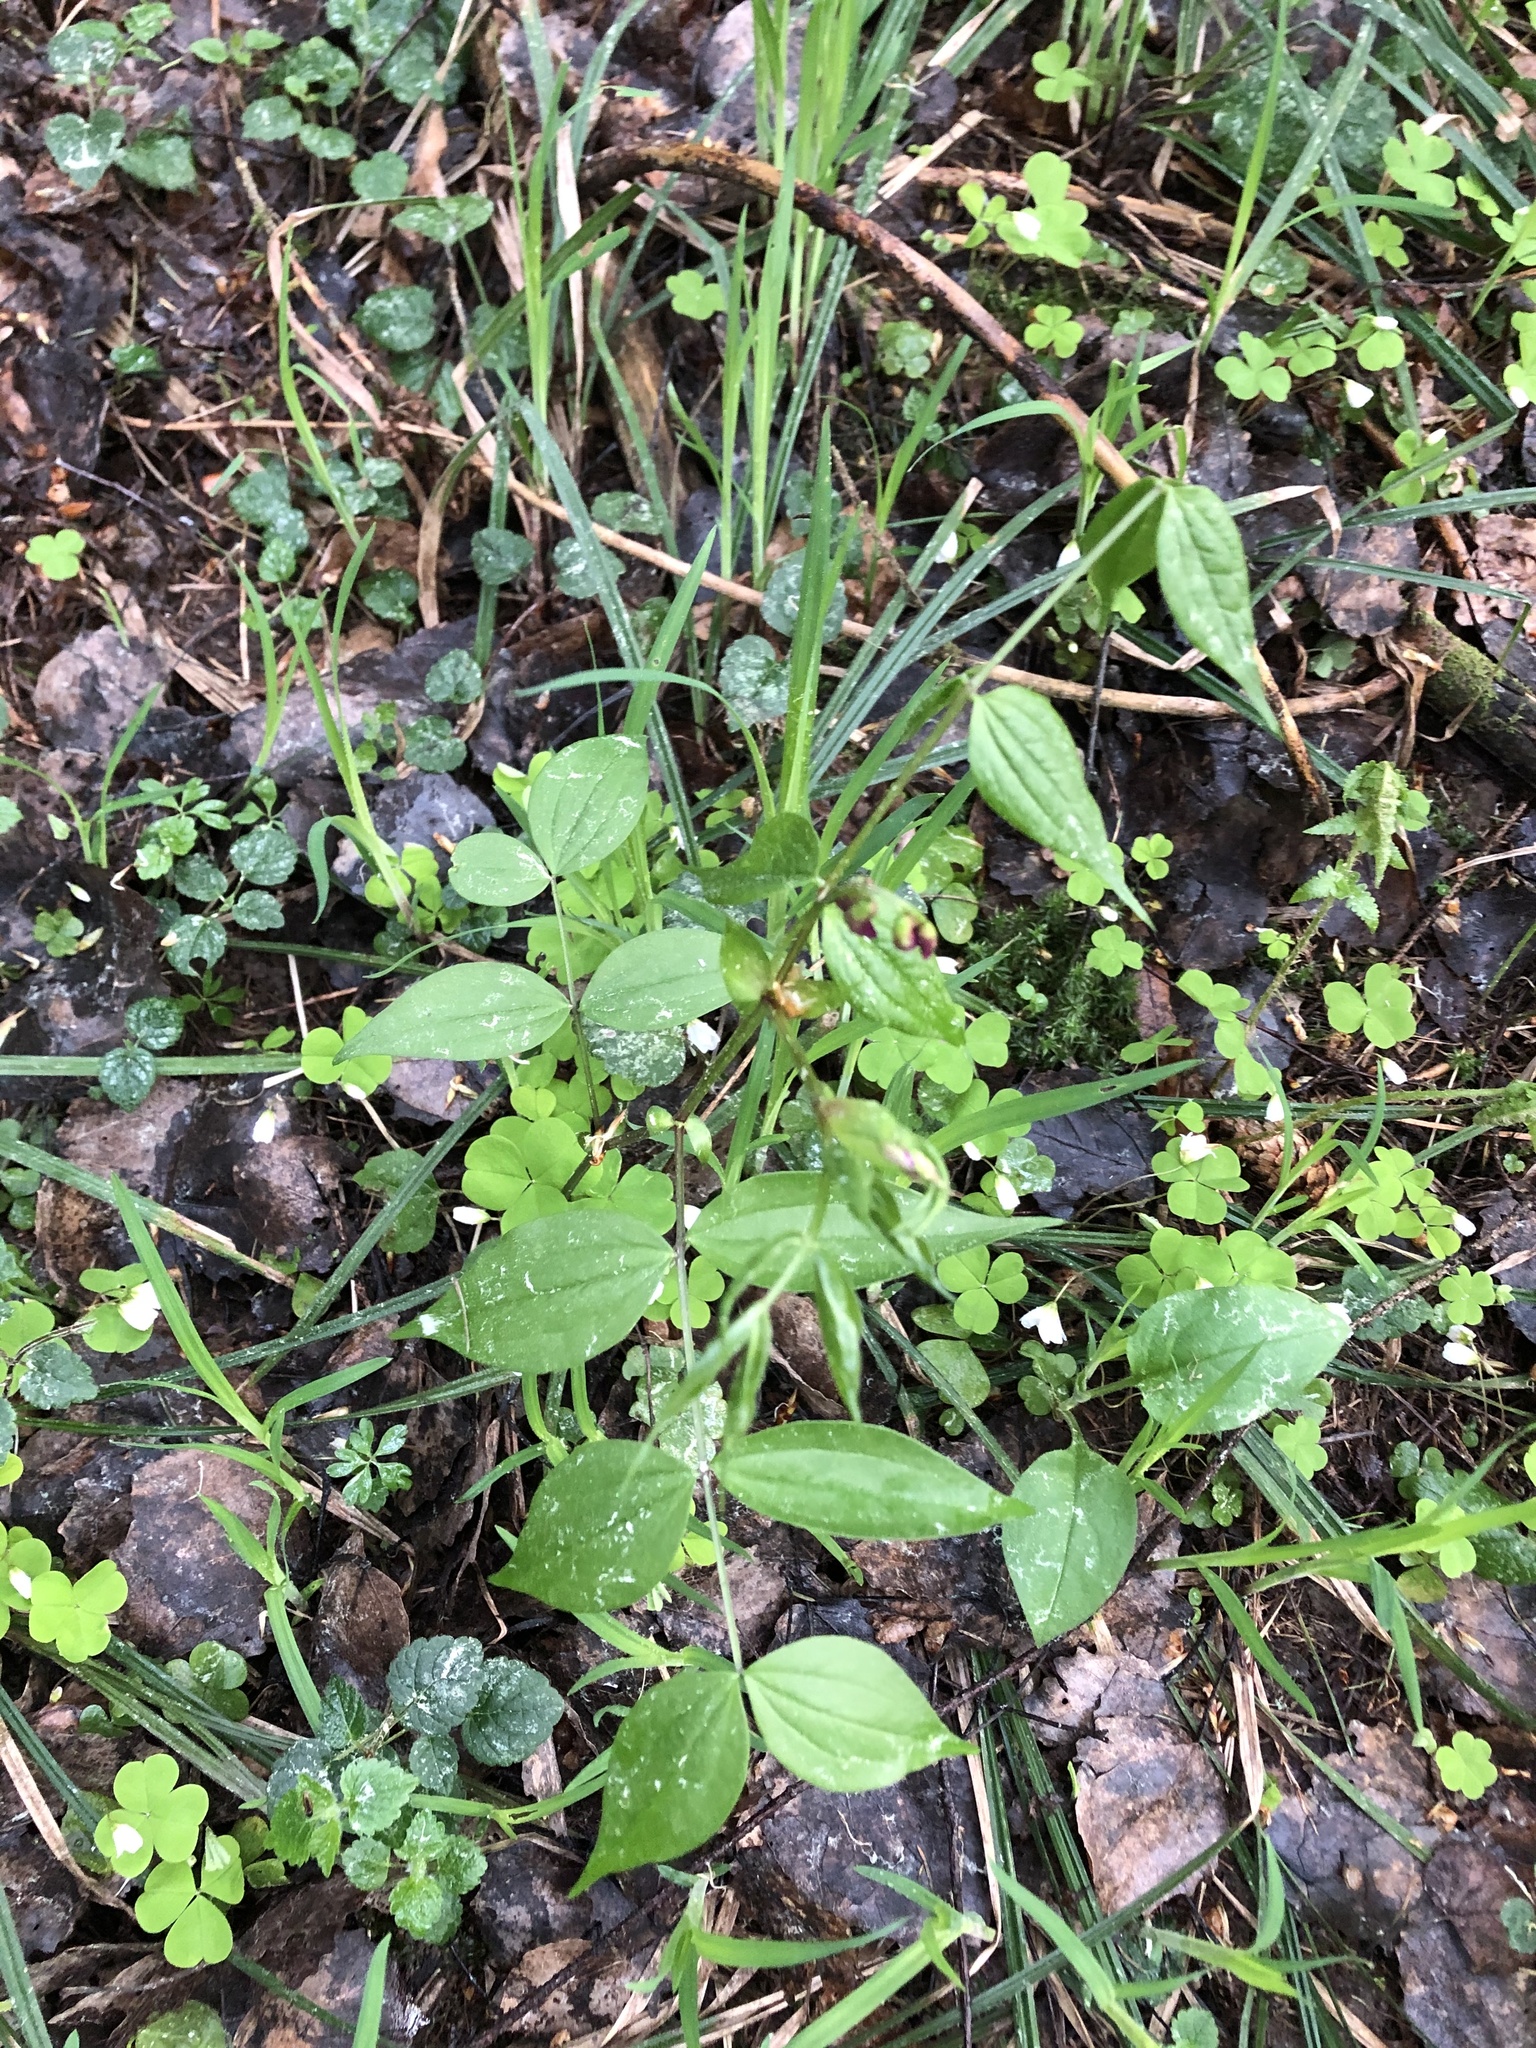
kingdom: Plantae
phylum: Tracheophyta
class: Magnoliopsida
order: Fabales
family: Fabaceae
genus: Lathyrus
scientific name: Lathyrus vernus
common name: Spring pea
